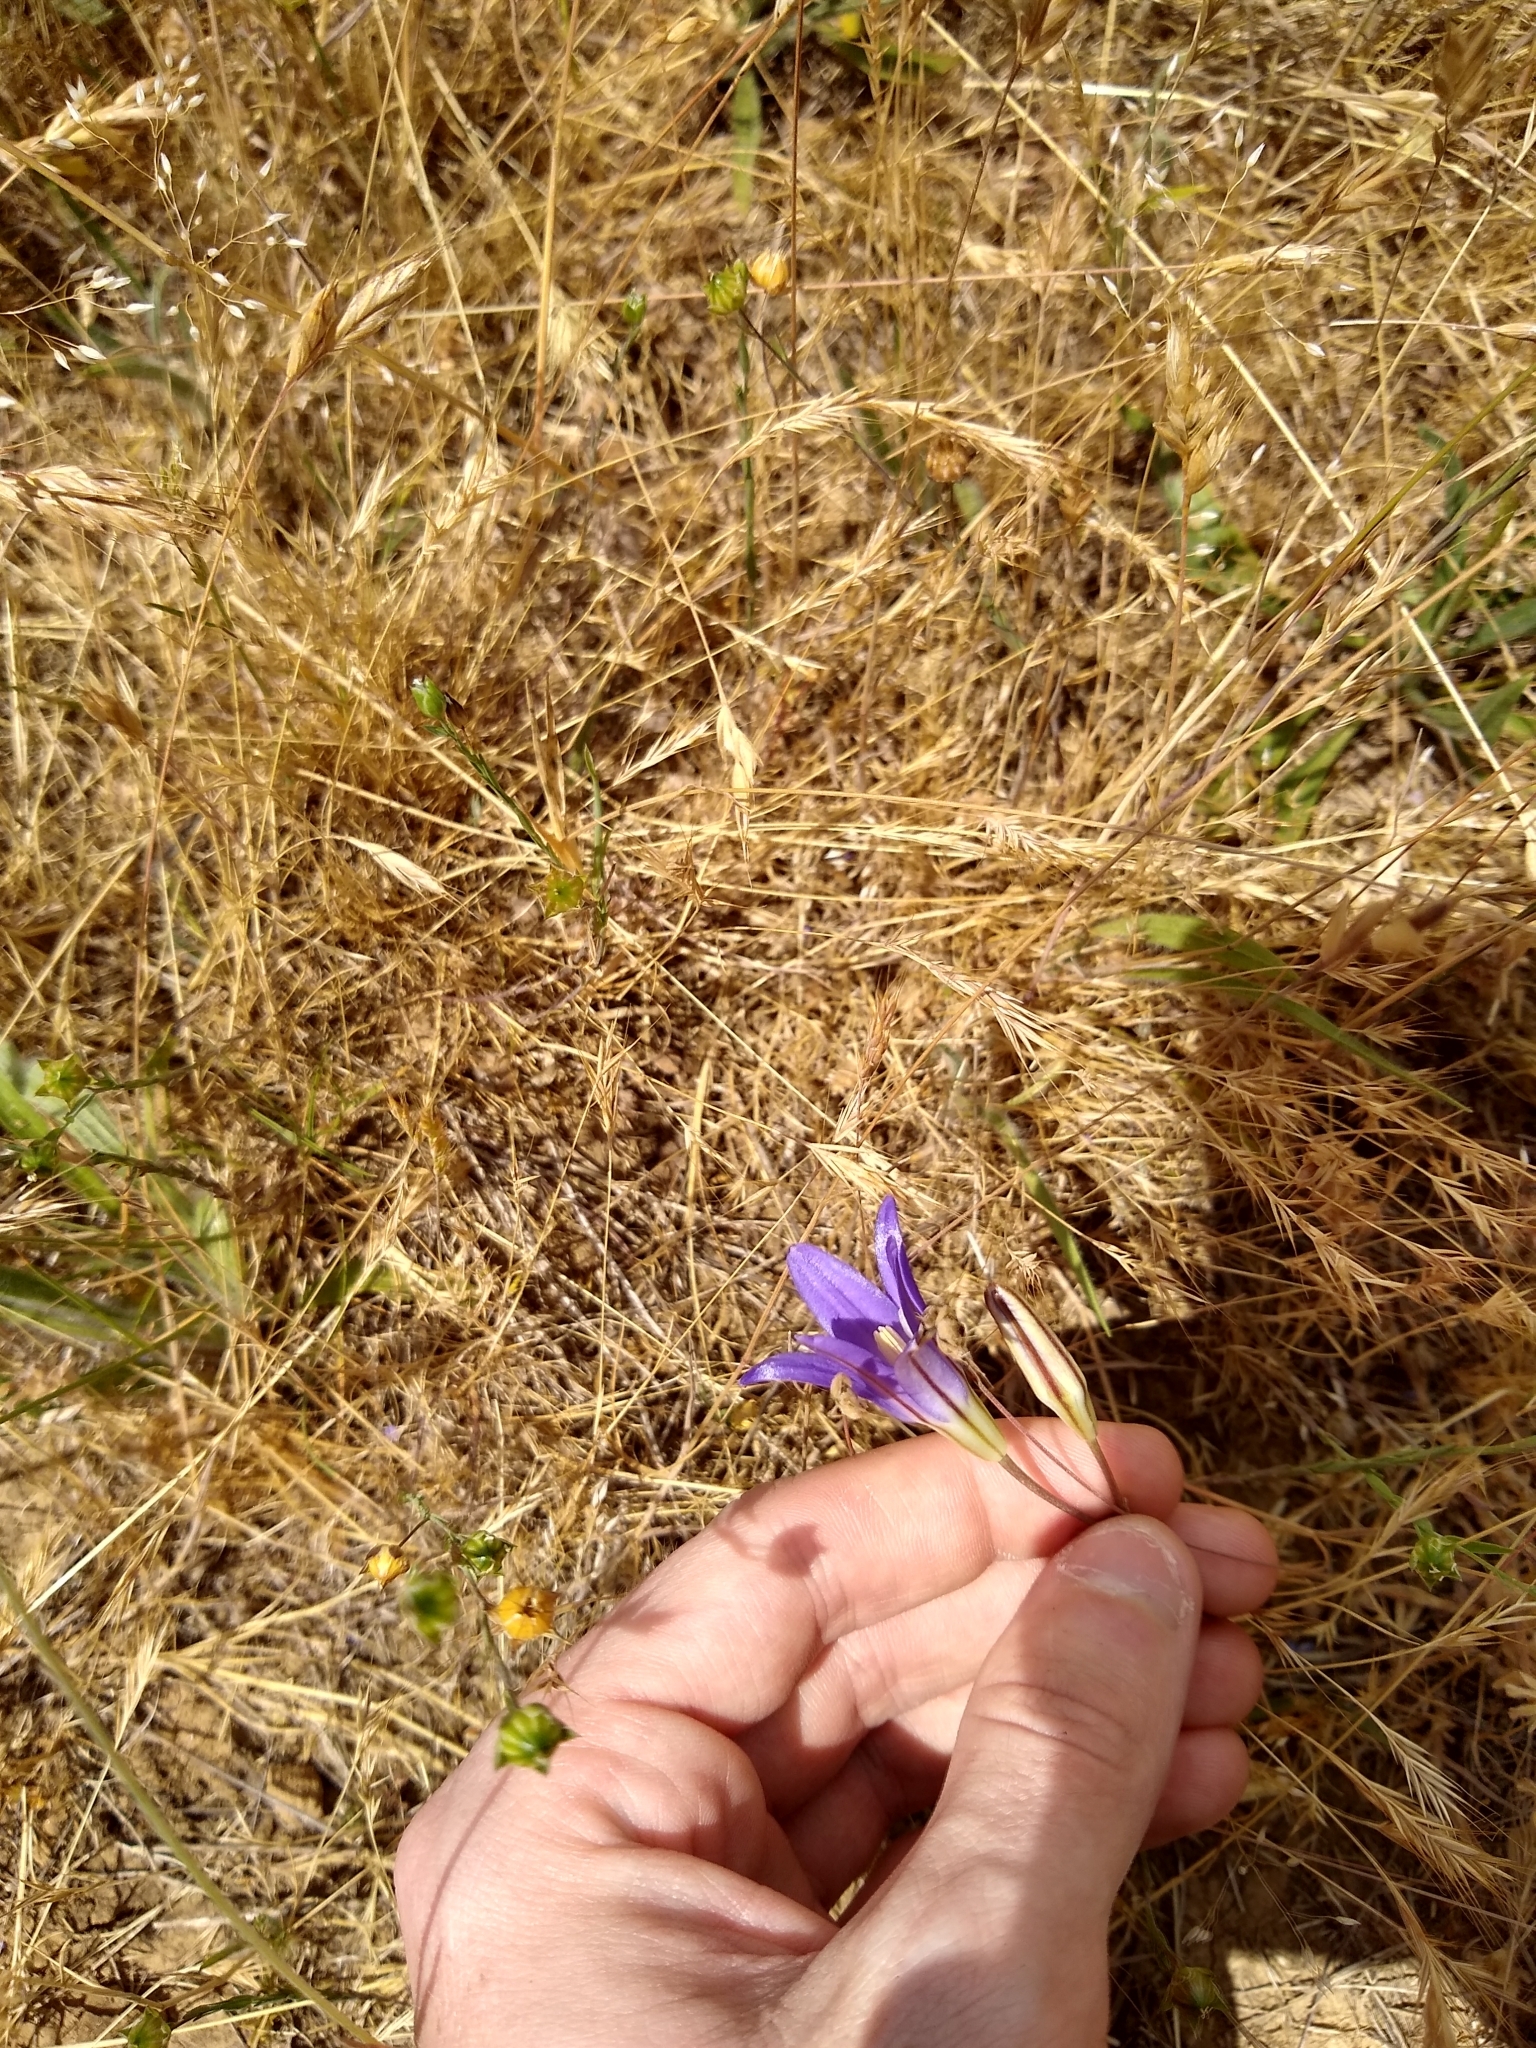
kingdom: Plantae
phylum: Tracheophyta
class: Liliopsida
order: Asparagales
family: Asparagaceae
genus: Brodiaea
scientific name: Brodiaea elegans
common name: Elegant cluster-lily
